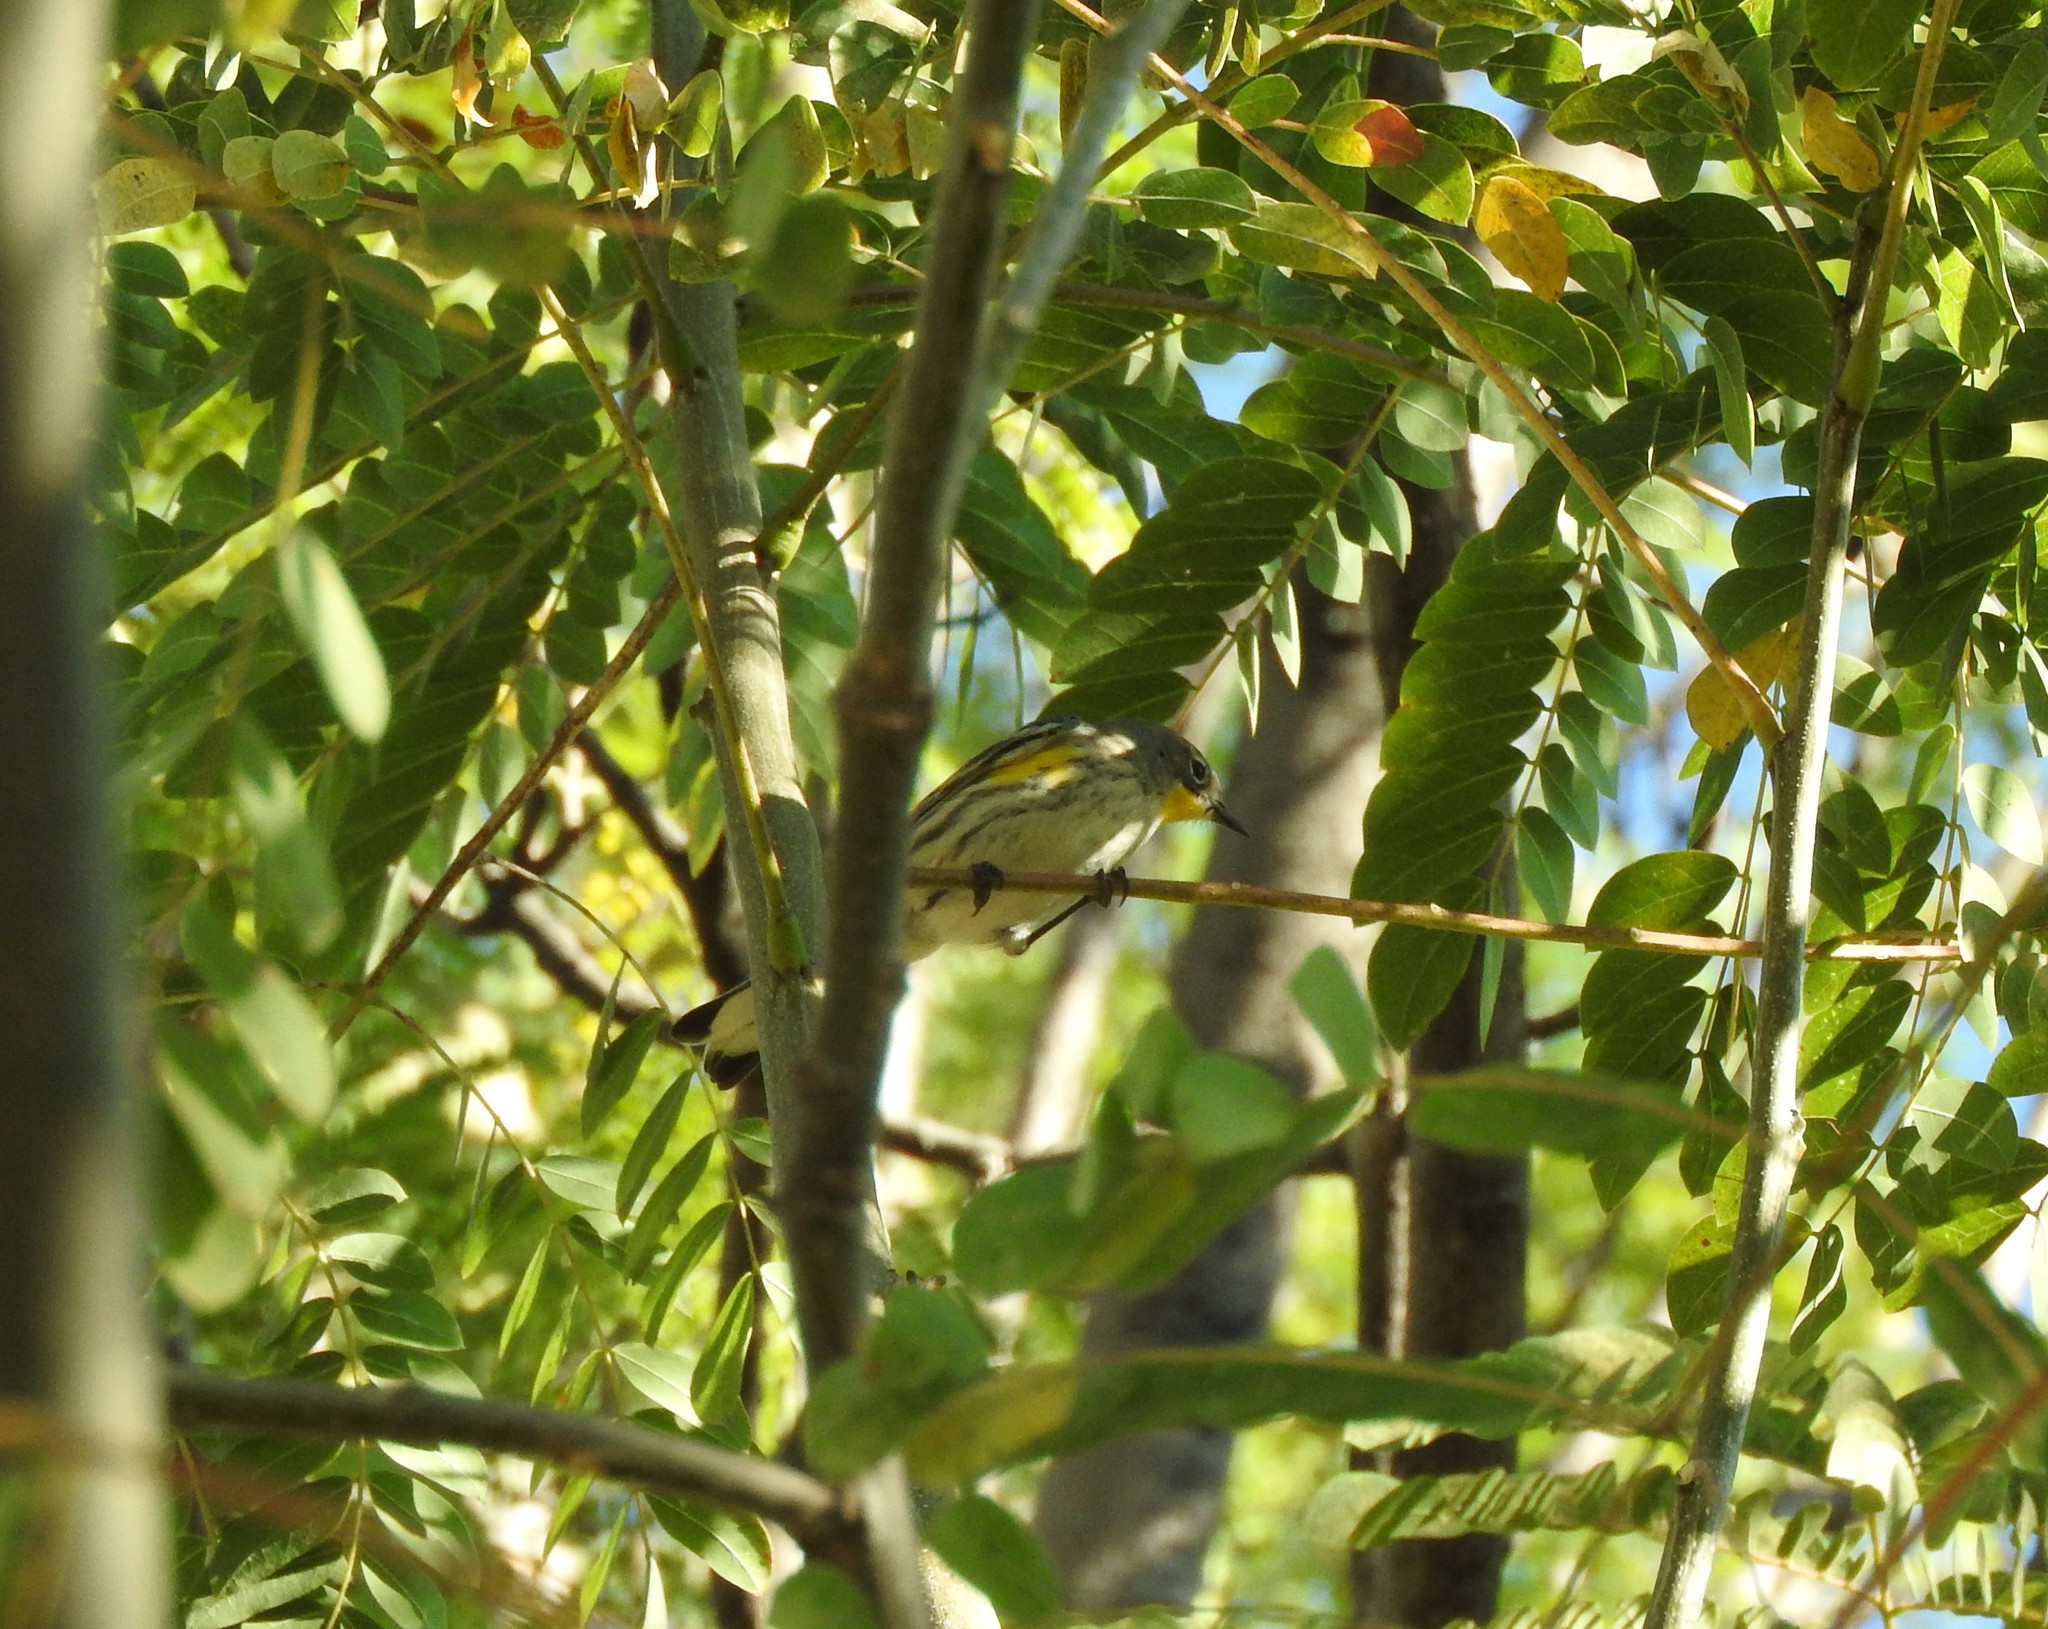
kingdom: Animalia
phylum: Chordata
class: Aves
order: Passeriformes
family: Parulidae
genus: Setophaga
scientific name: Setophaga auduboni
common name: Audubon's warbler
